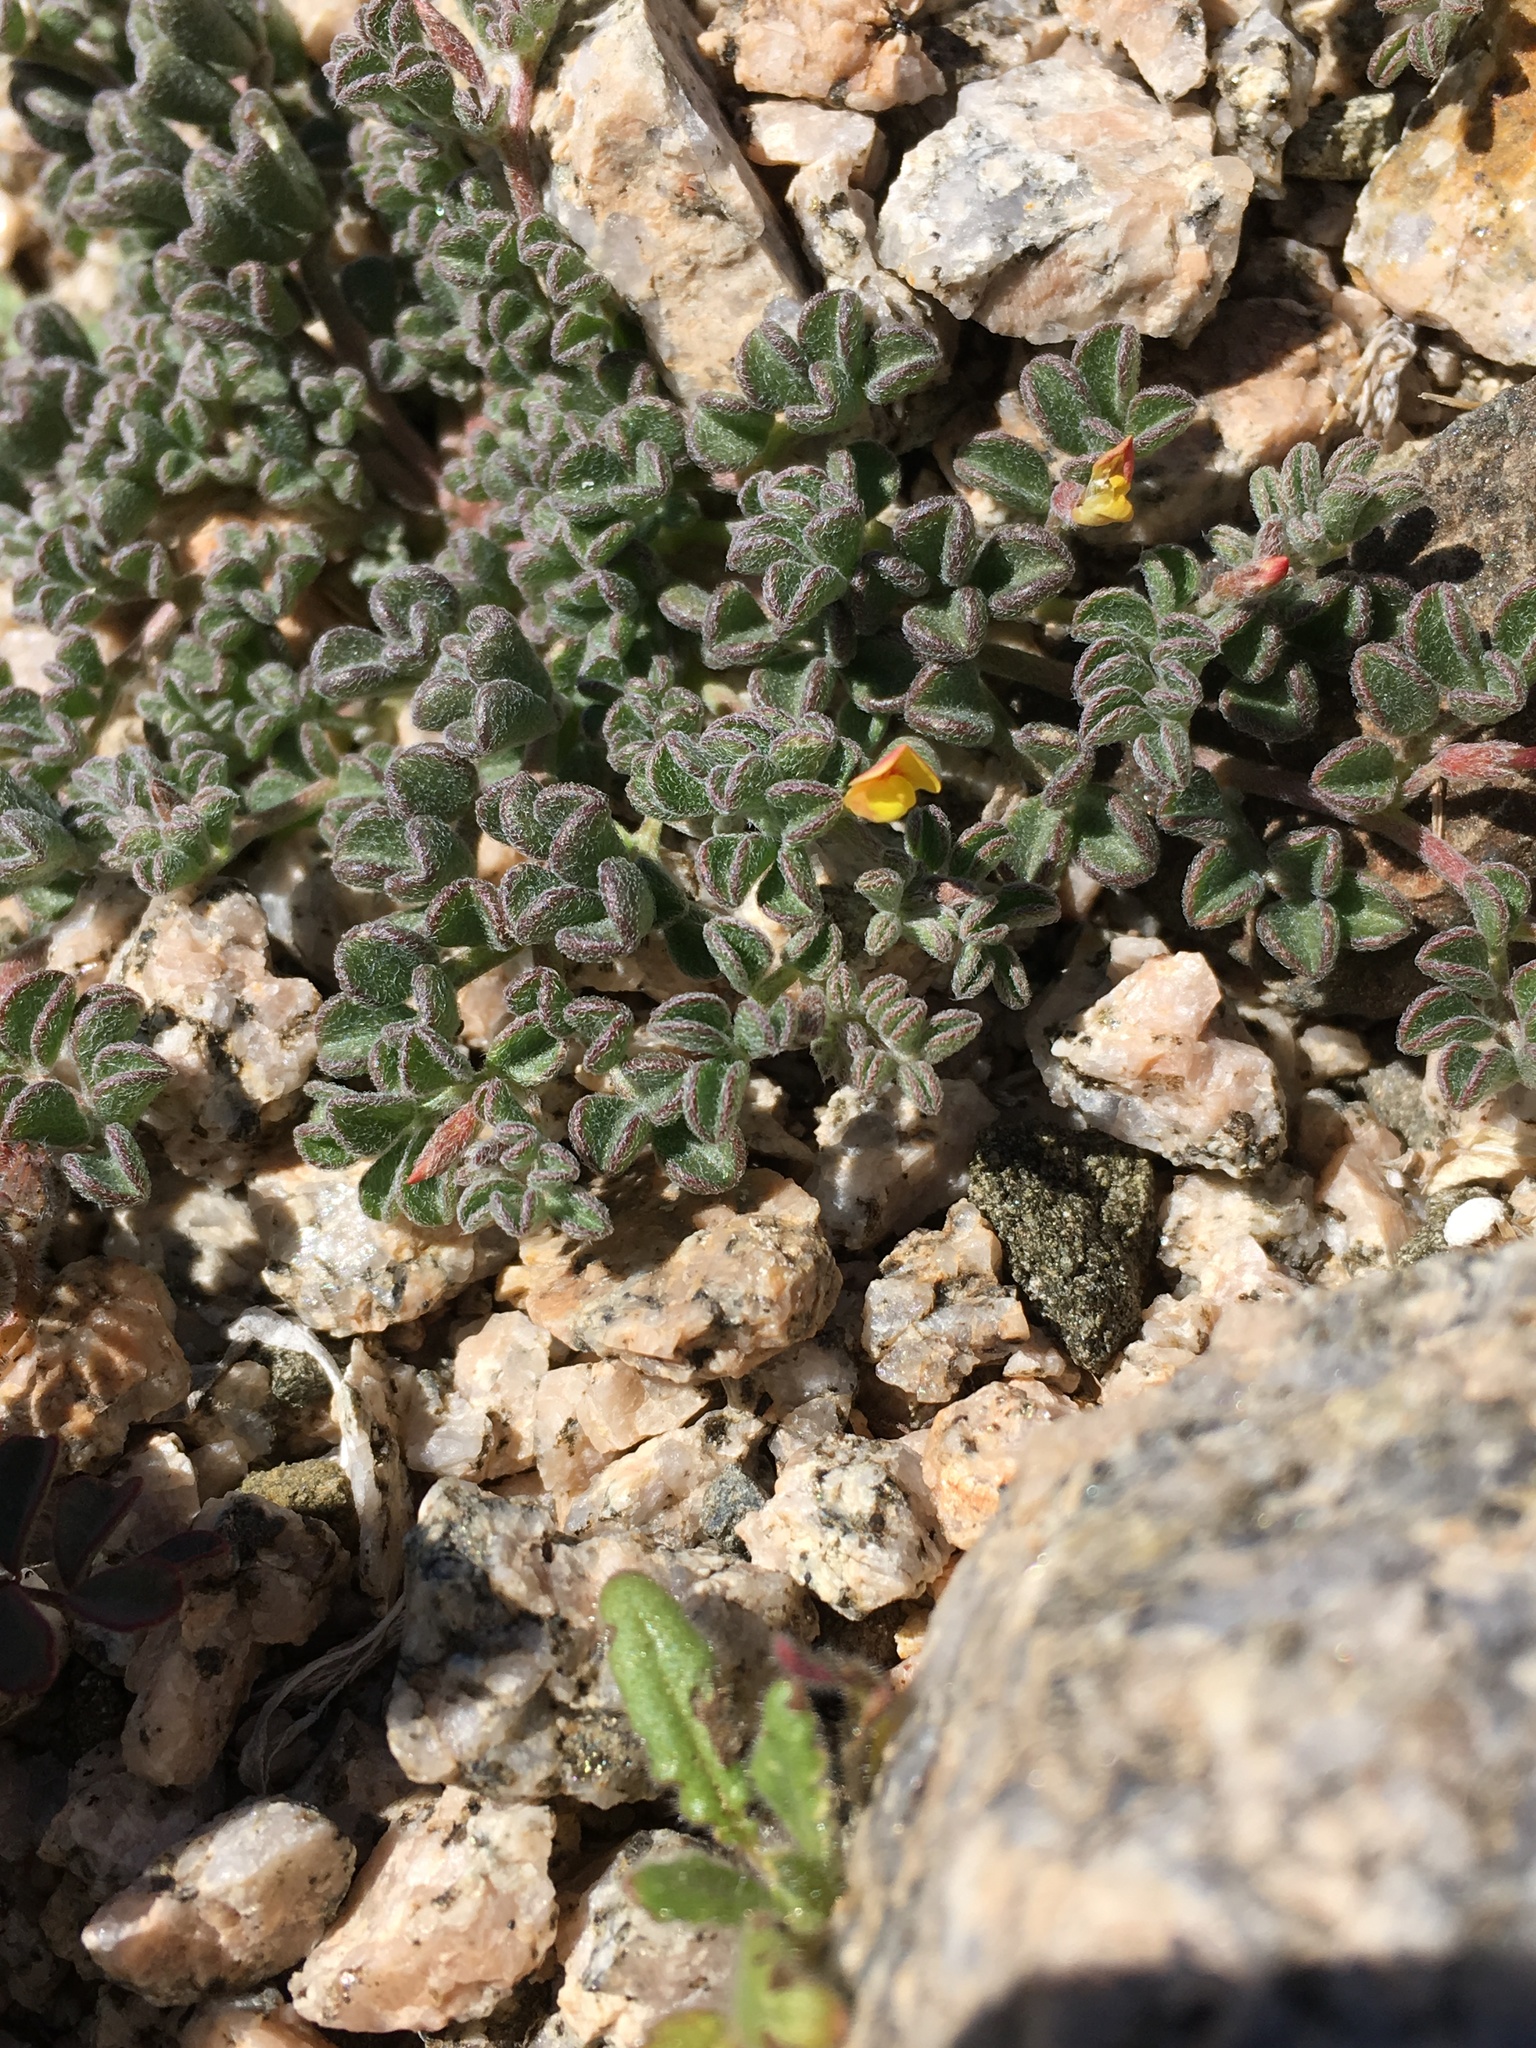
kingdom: Plantae
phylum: Tracheophyta
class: Magnoliopsida
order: Fabales
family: Fabaceae
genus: Acmispon
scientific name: Acmispon strigosus
